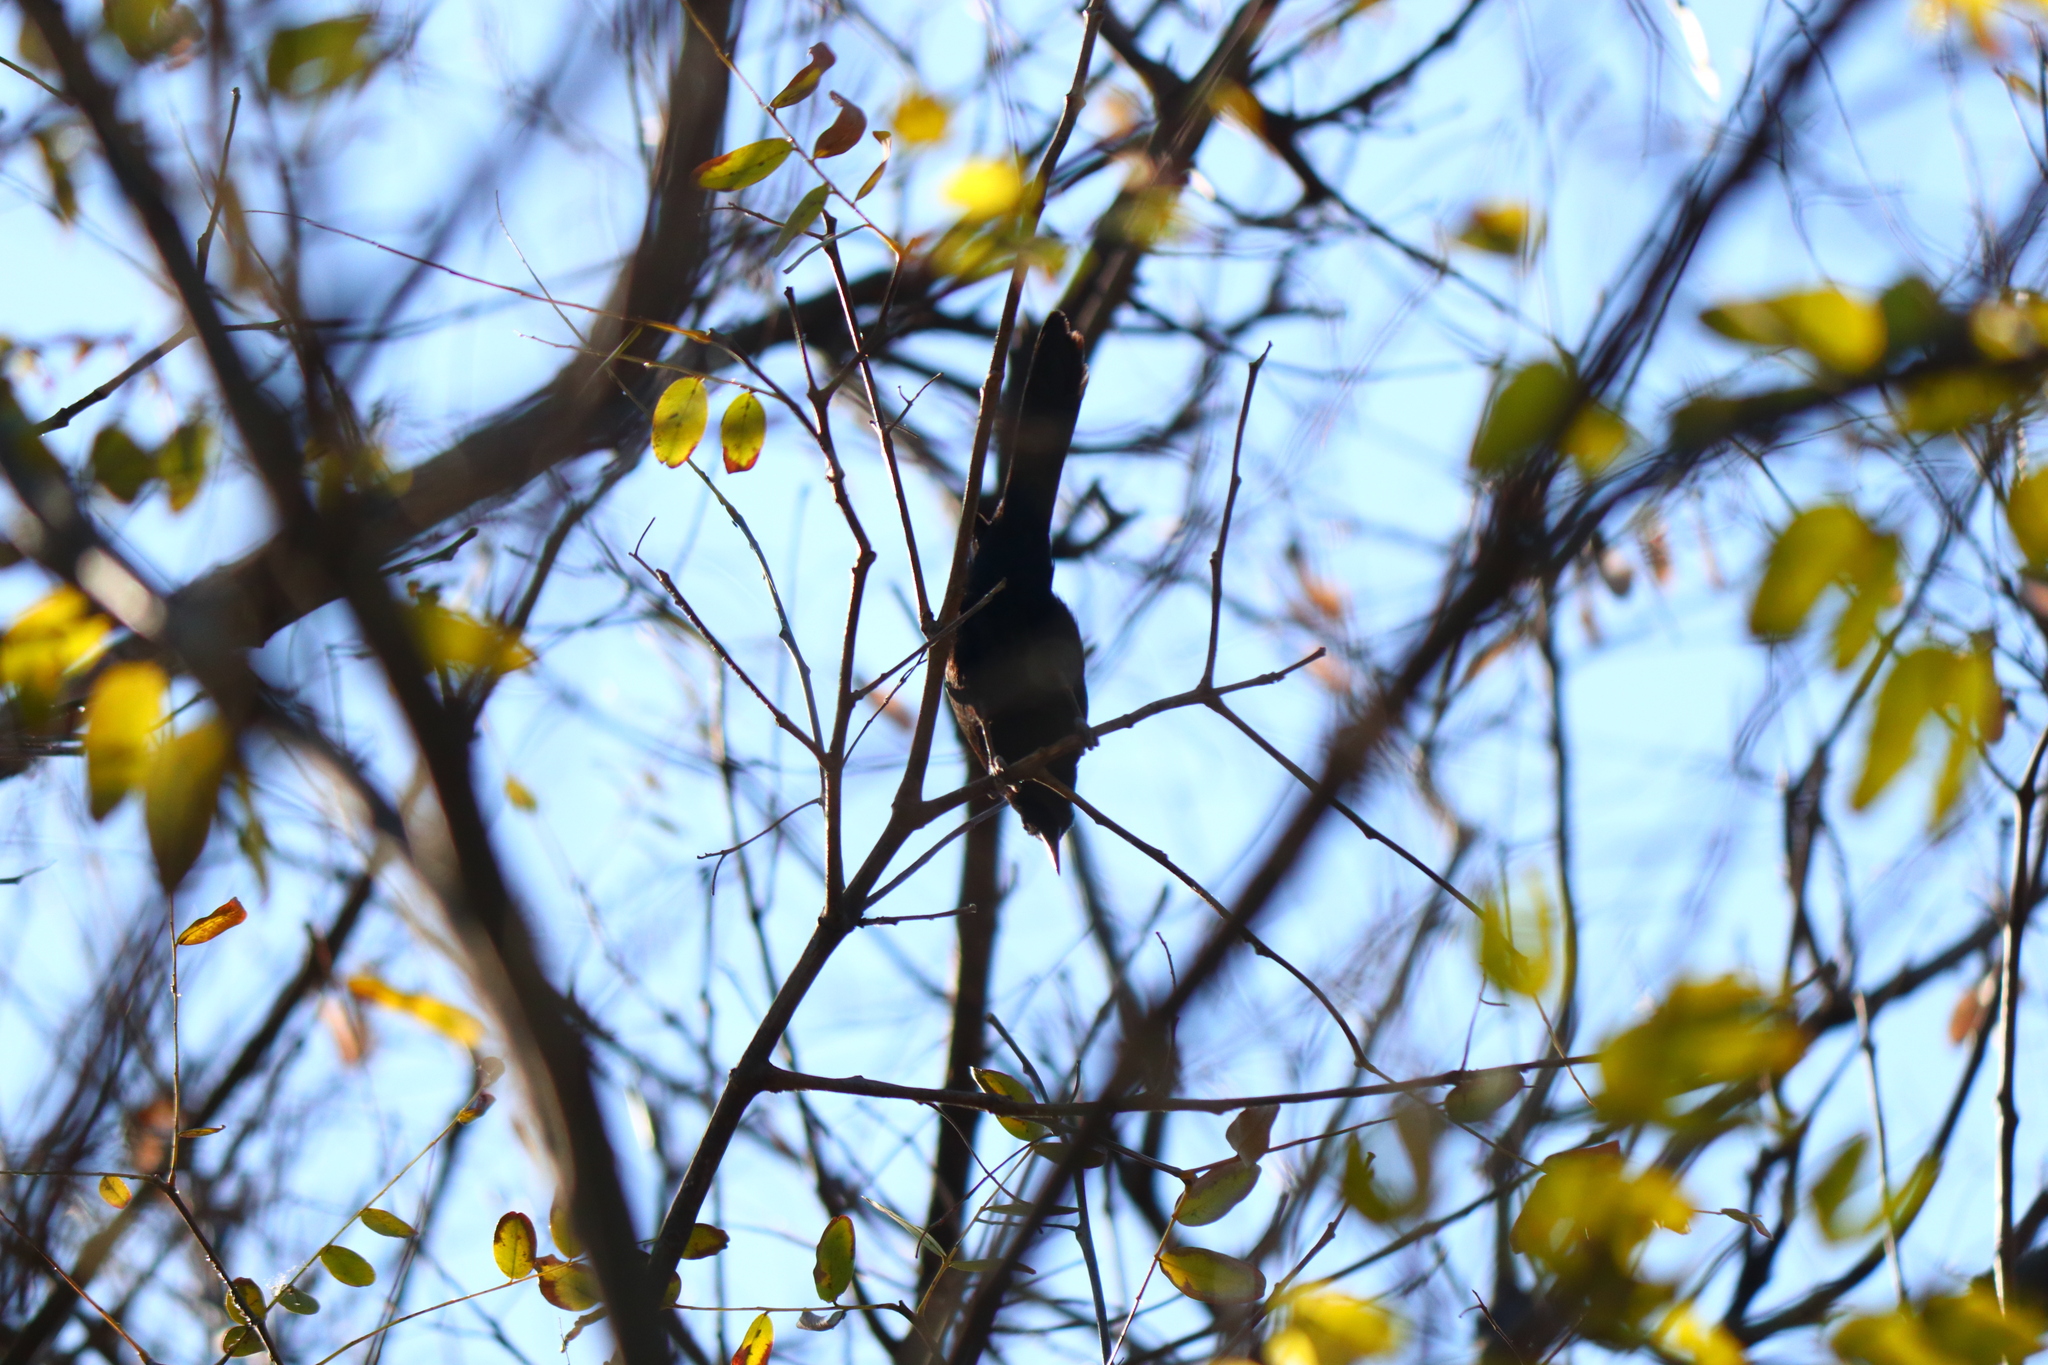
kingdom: Animalia
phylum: Chordata
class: Aves
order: Passeriformes
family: Icteridae
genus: Icterus
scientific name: Icterus cayanensis
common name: Epaulet oriole
